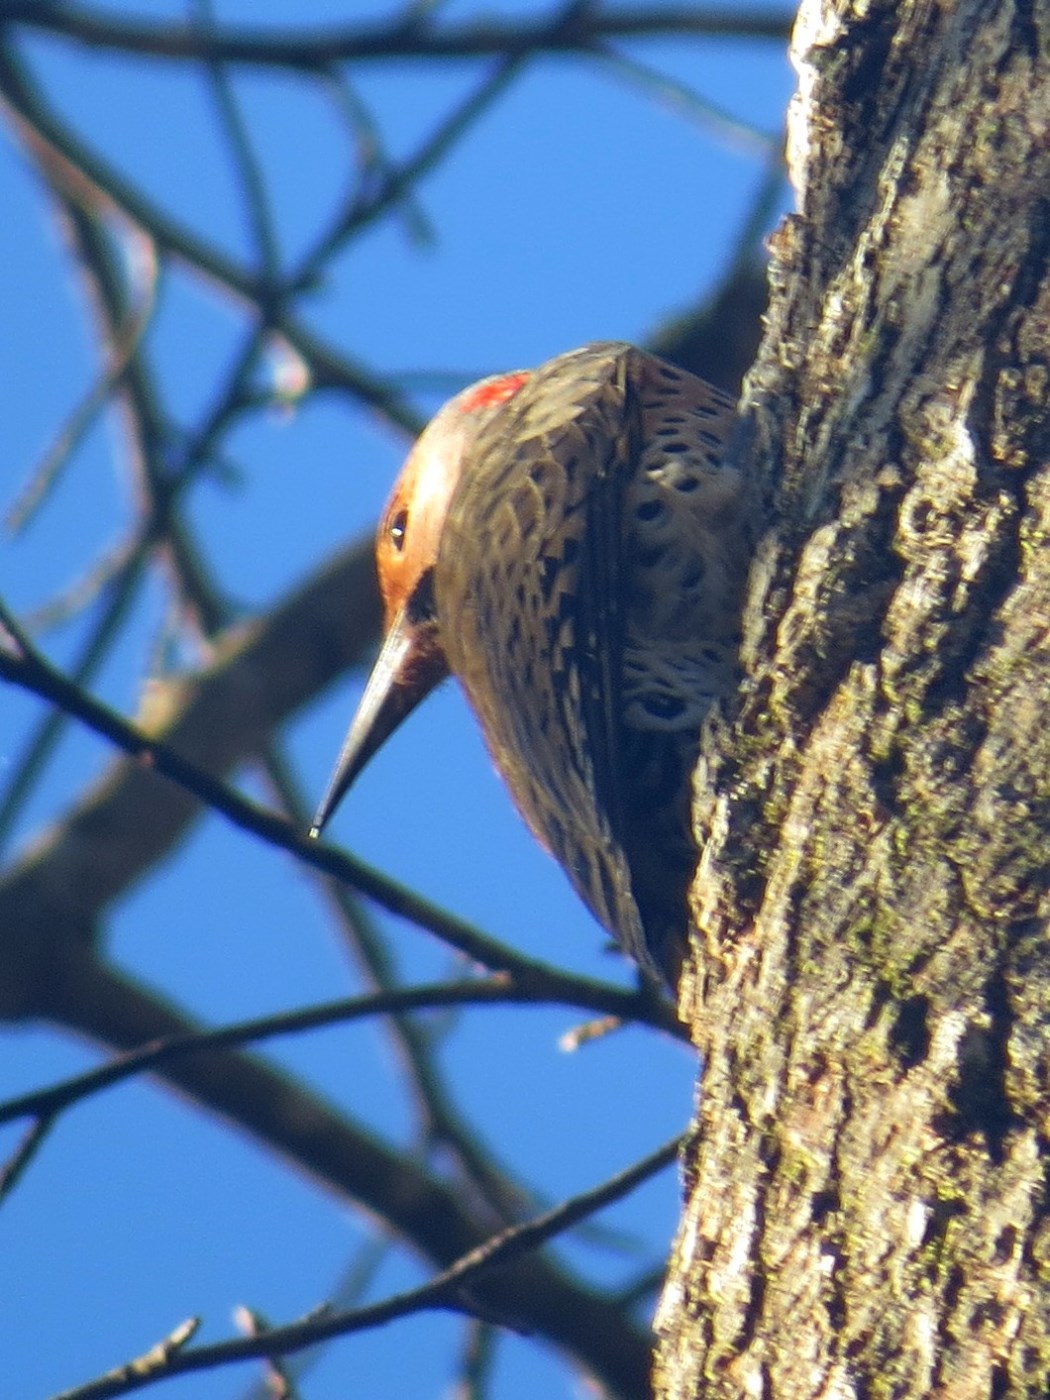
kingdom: Animalia
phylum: Chordata
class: Aves
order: Piciformes
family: Picidae
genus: Colaptes
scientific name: Colaptes auratus
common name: Northern flicker
